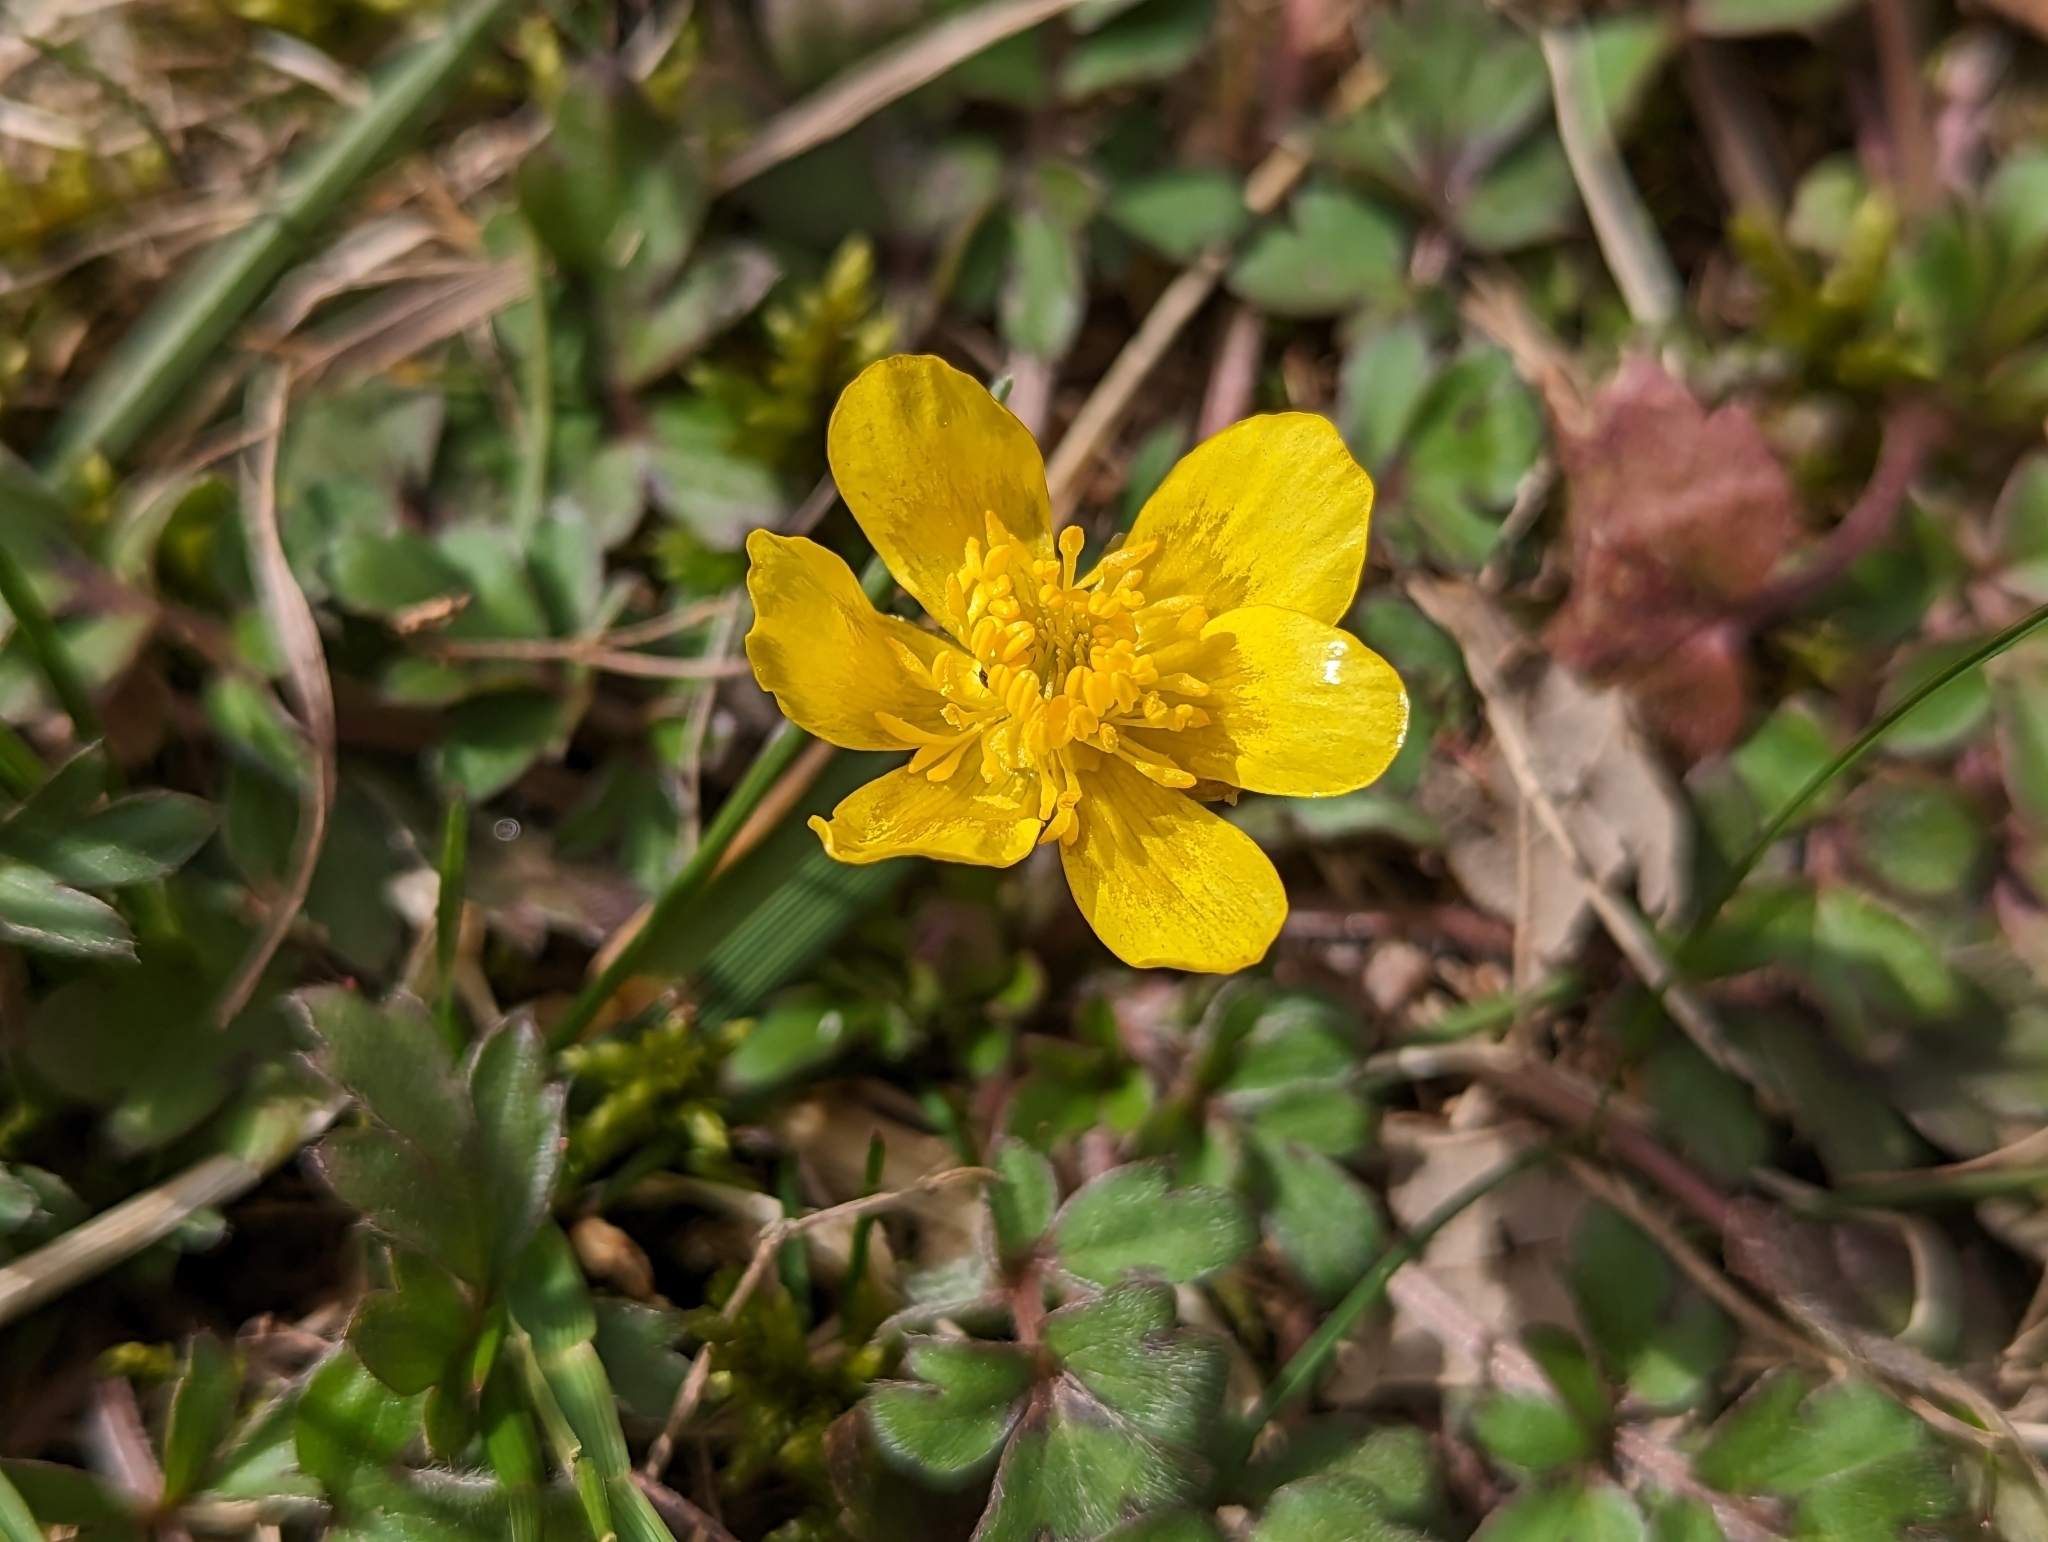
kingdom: Plantae
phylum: Tracheophyta
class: Magnoliopsida
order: Ranunculales
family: Ranunculaceae
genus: Ranunculus
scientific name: Ranunculus fascicularis
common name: Early buttercup
